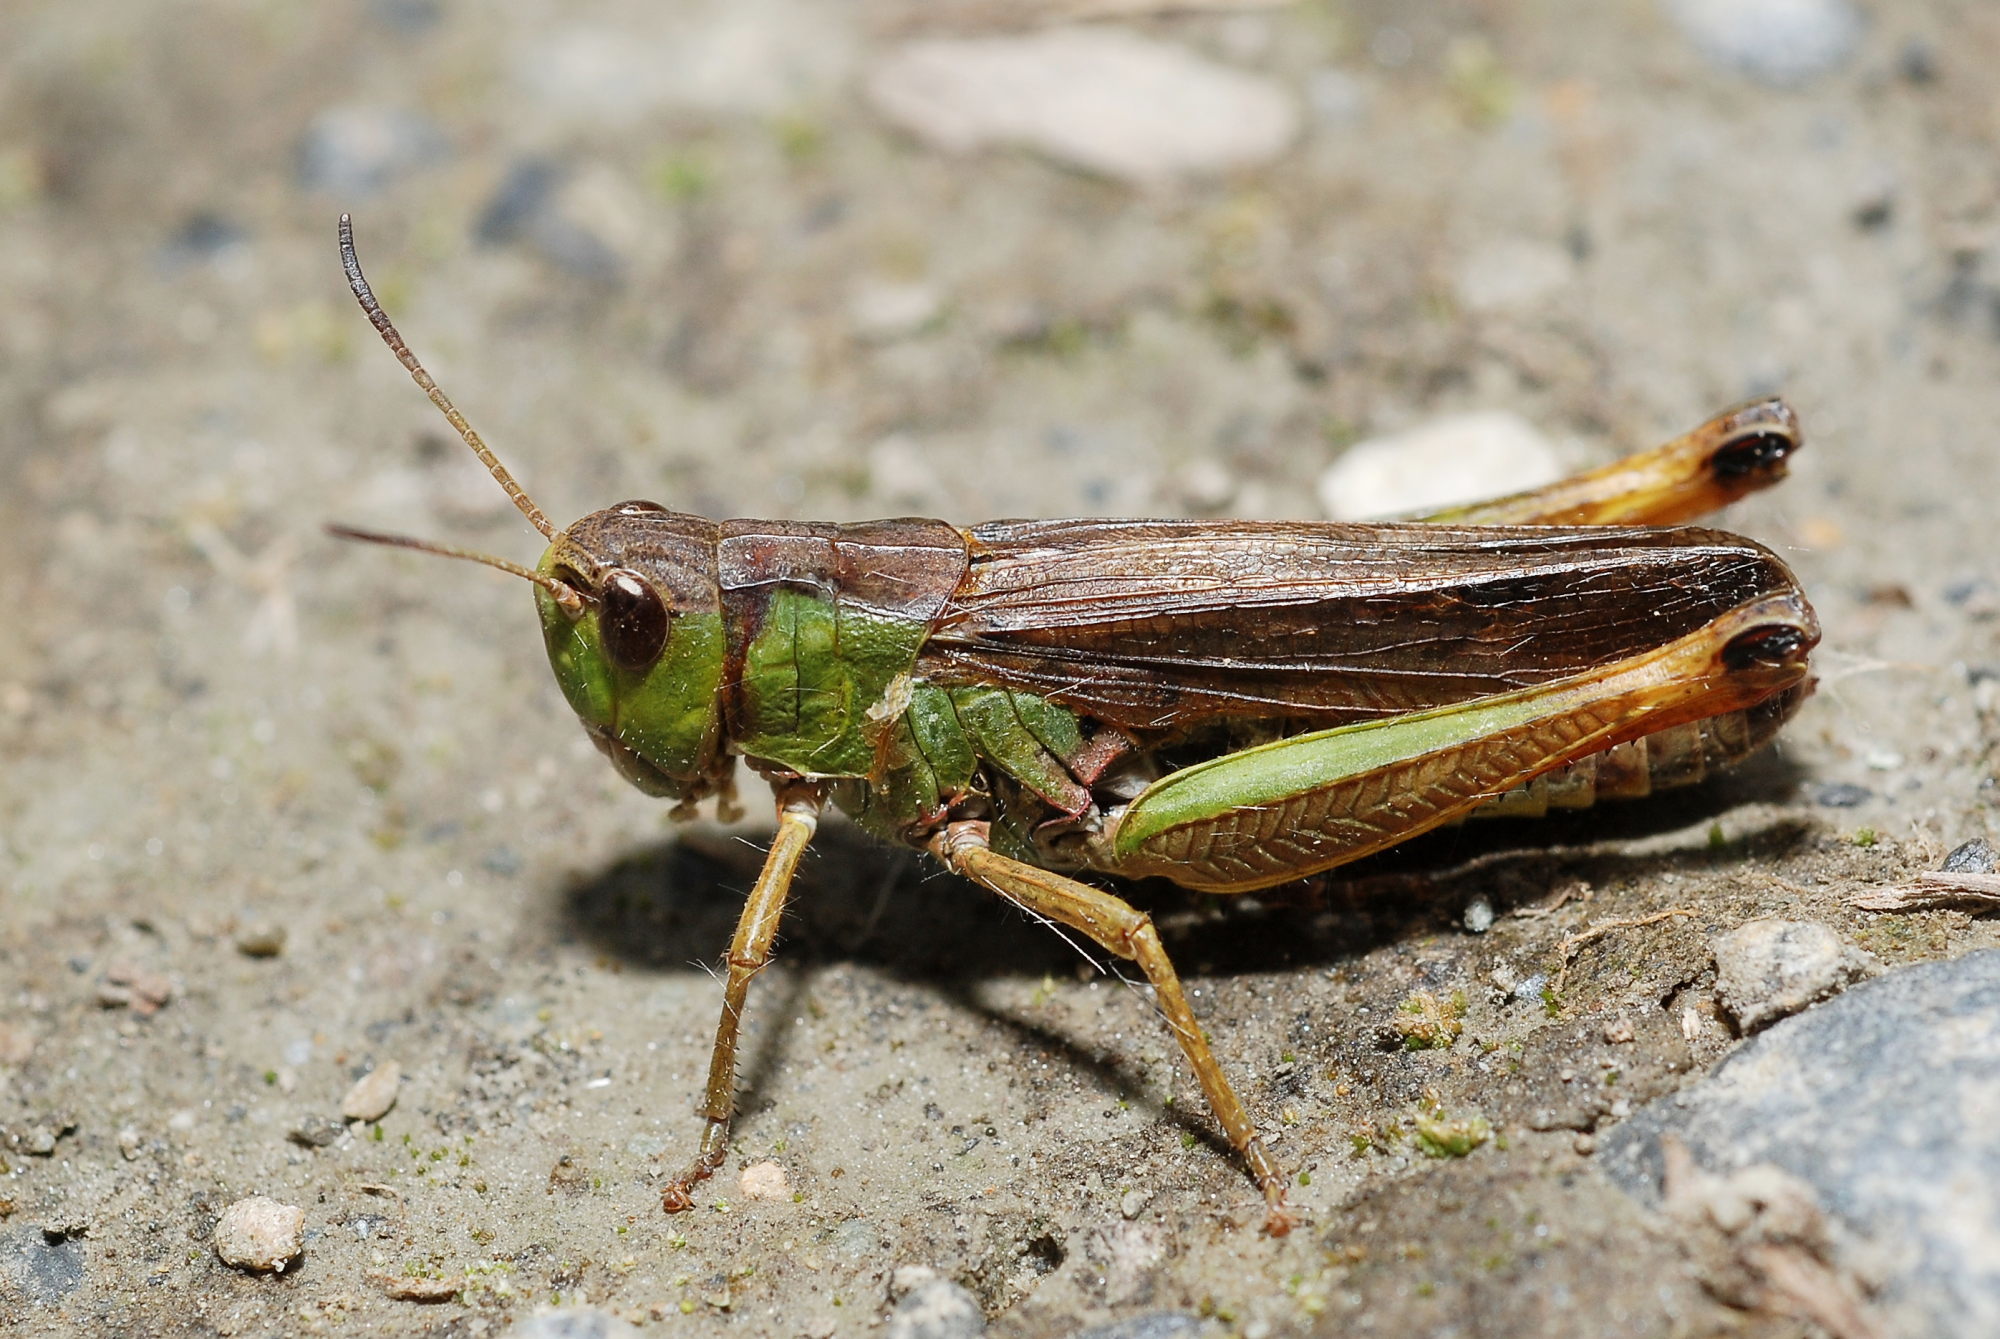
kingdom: Animalia
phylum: Arthropoda
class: Insecta
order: Orthoptera
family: Acrididae
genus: Stauroderus
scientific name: Stauroderus scalaris
